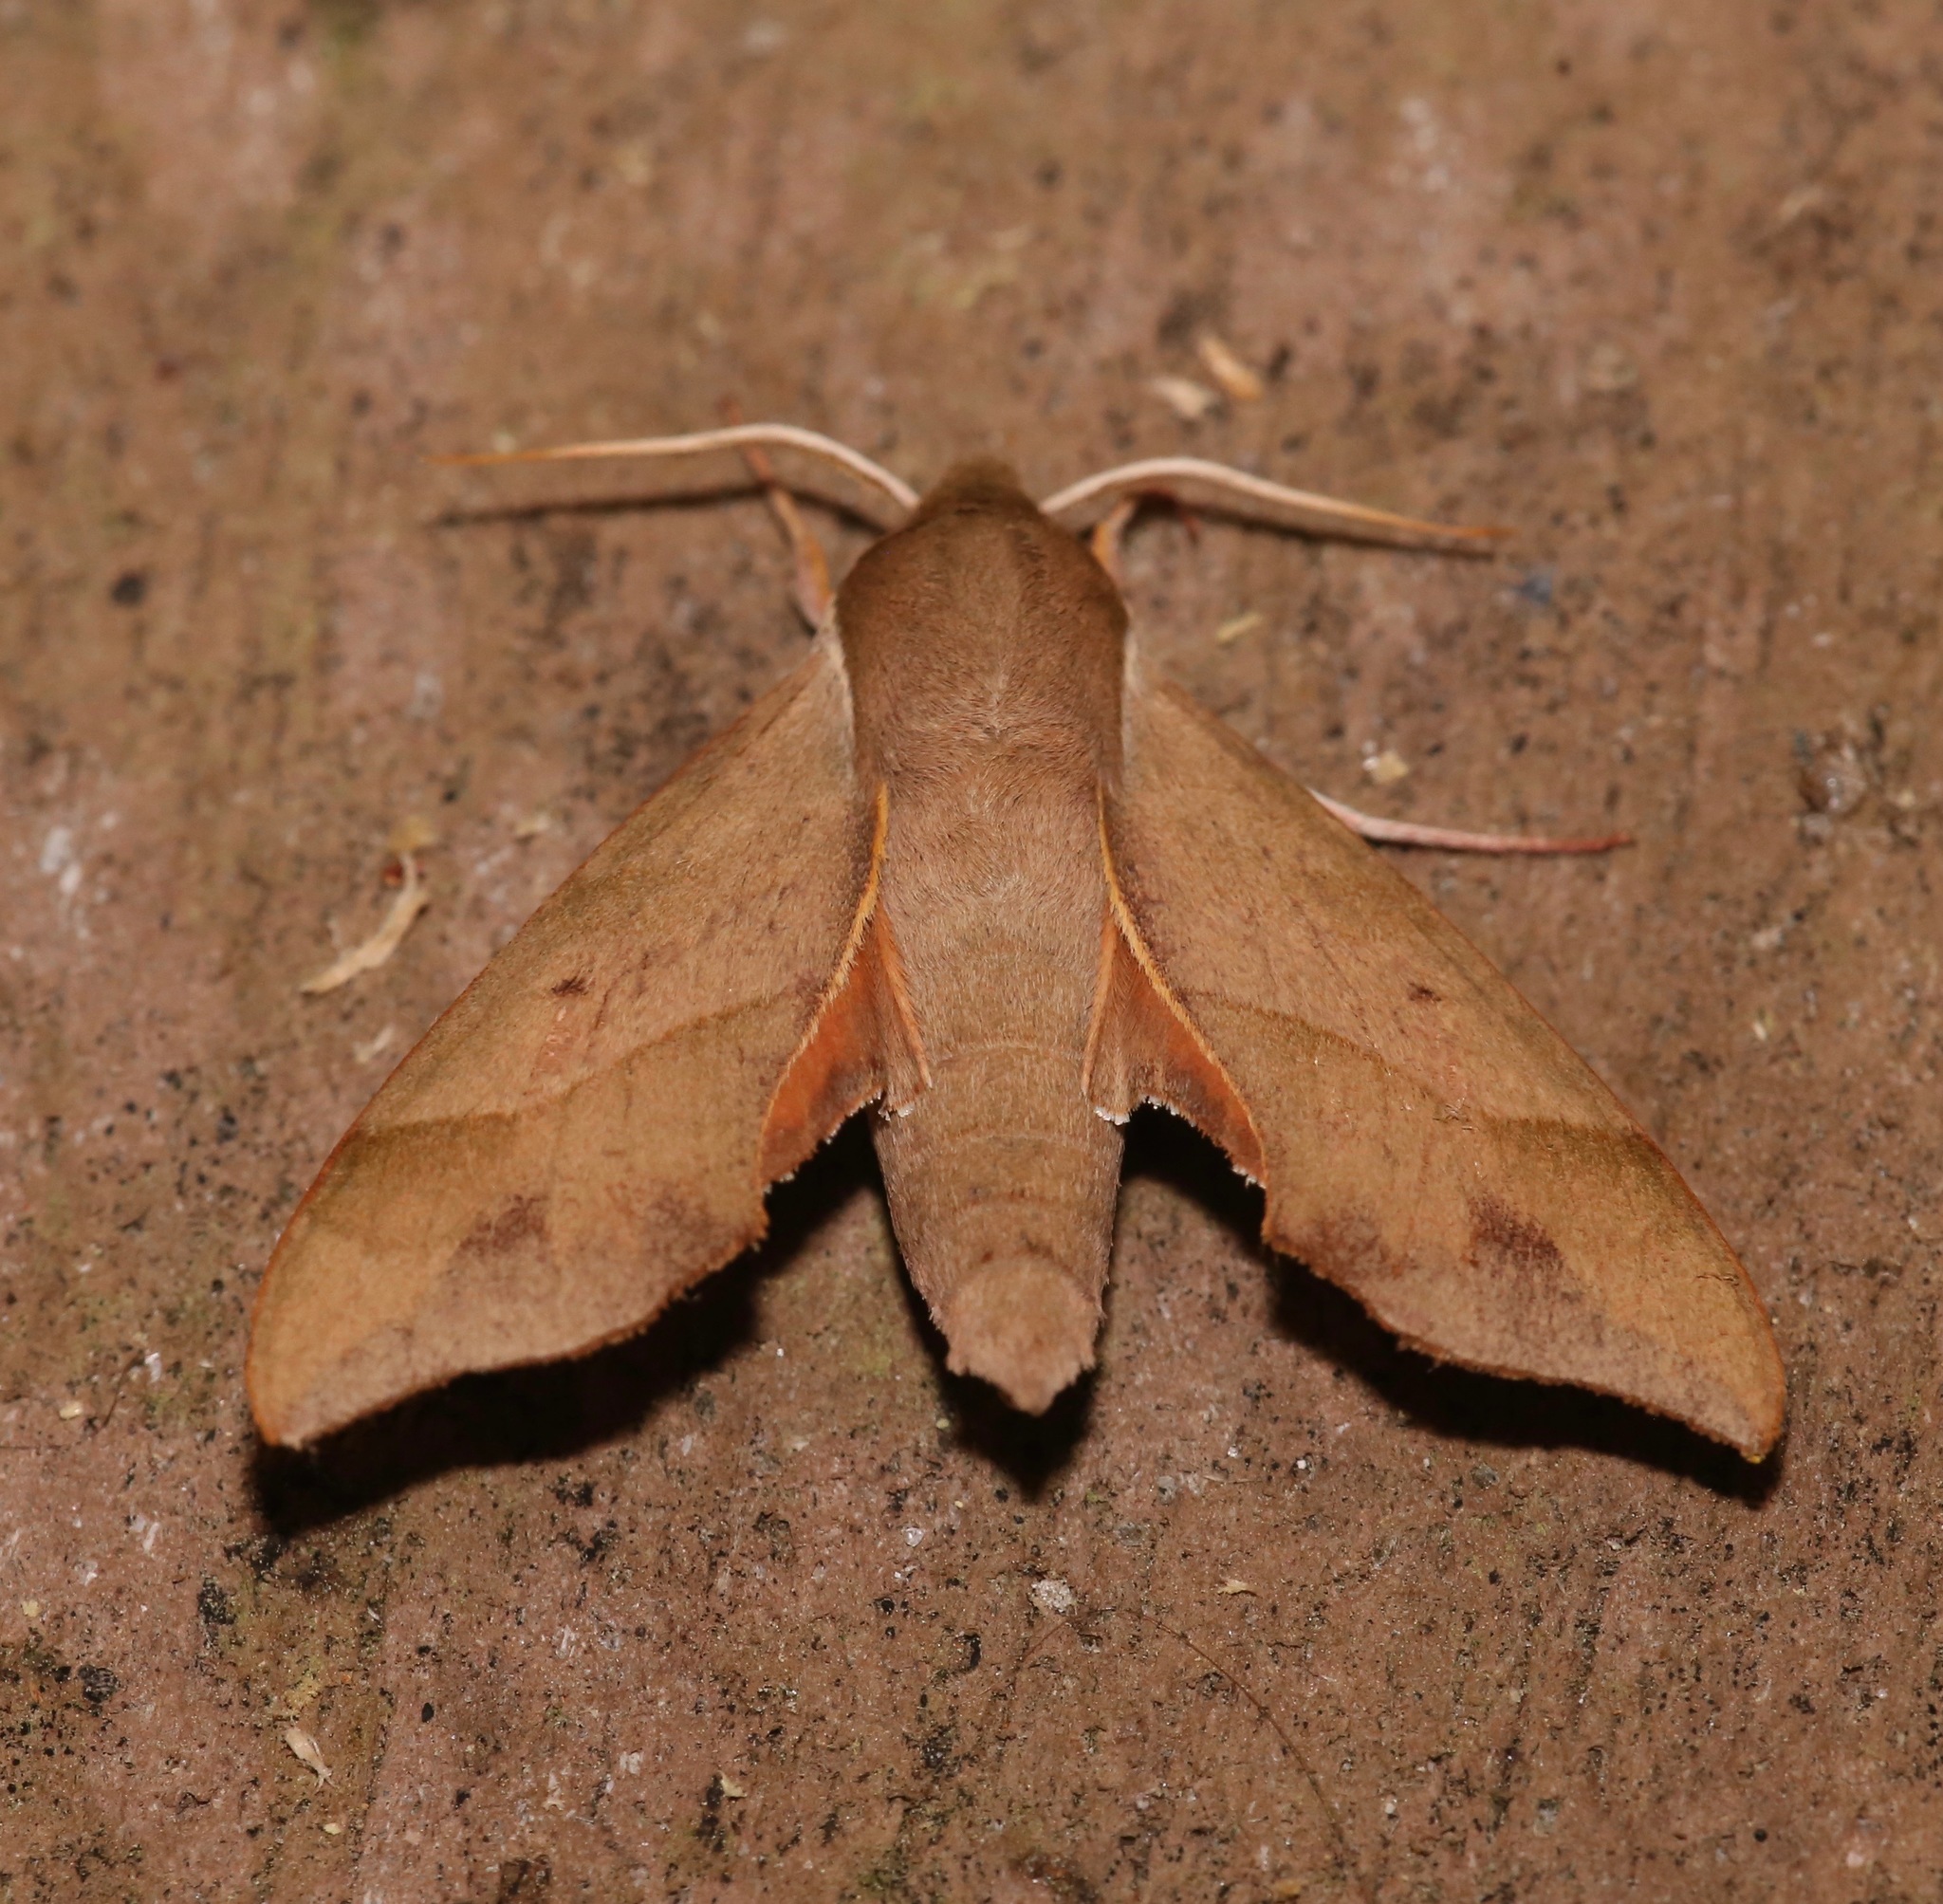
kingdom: Animalia
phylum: Arthropoda
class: Insecta
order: Lepidoptera
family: Sphingidae
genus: Darapsa
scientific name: Darapsa myron
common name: Hog sphinx
